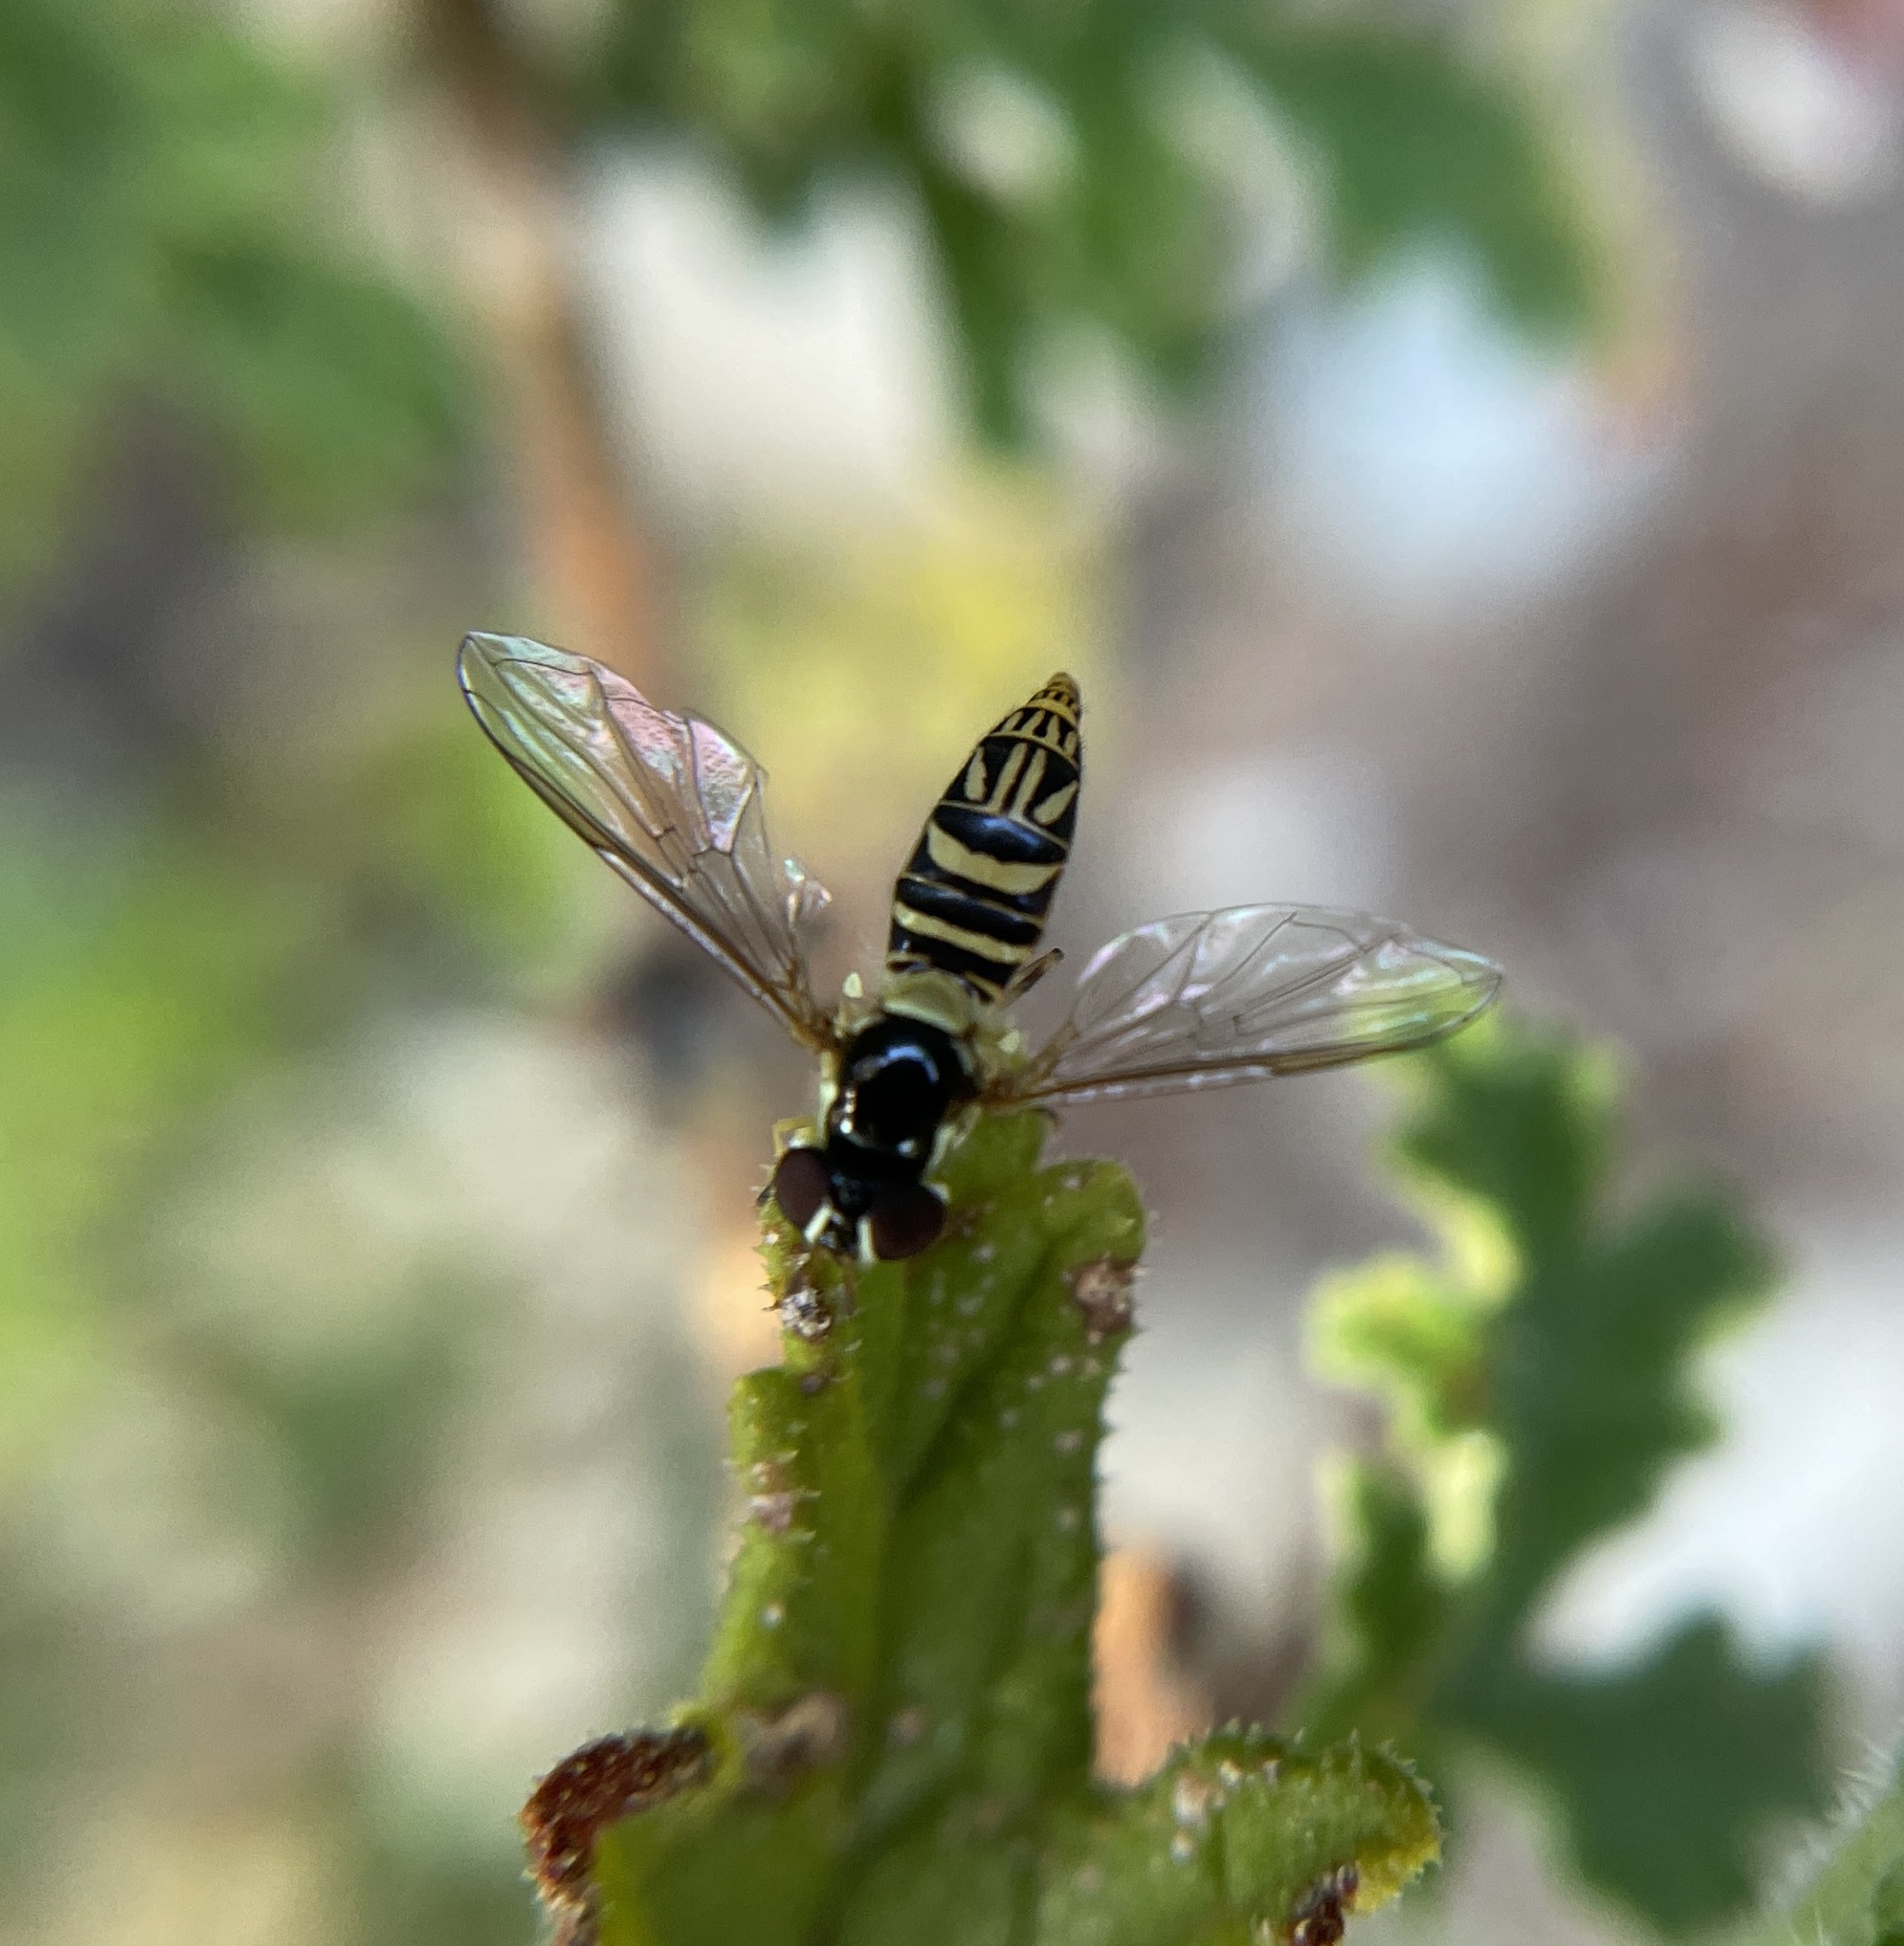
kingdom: Animalia
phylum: Arthropoda
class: Insecta
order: Diptera
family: Syrphidae
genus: Allograpta
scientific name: Allograpta obliqua
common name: Common oblique syrphid
